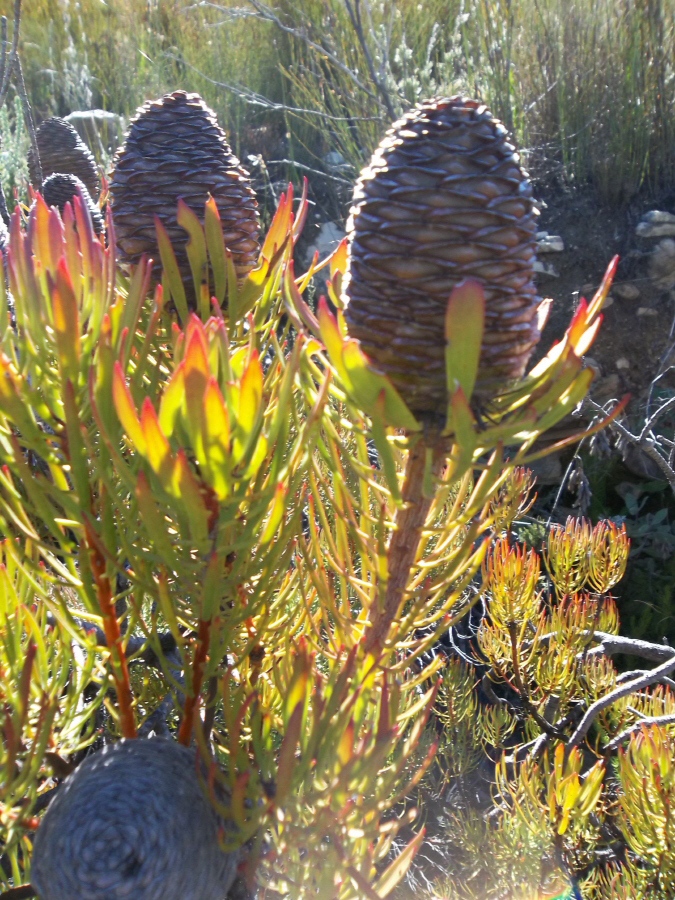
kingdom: Plantae
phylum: Tracheophyta
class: Magnoliopsida
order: Proteales
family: Proteaceae
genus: Leucadendron
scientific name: Leucadendron comosum
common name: Ridge-cone conebush
